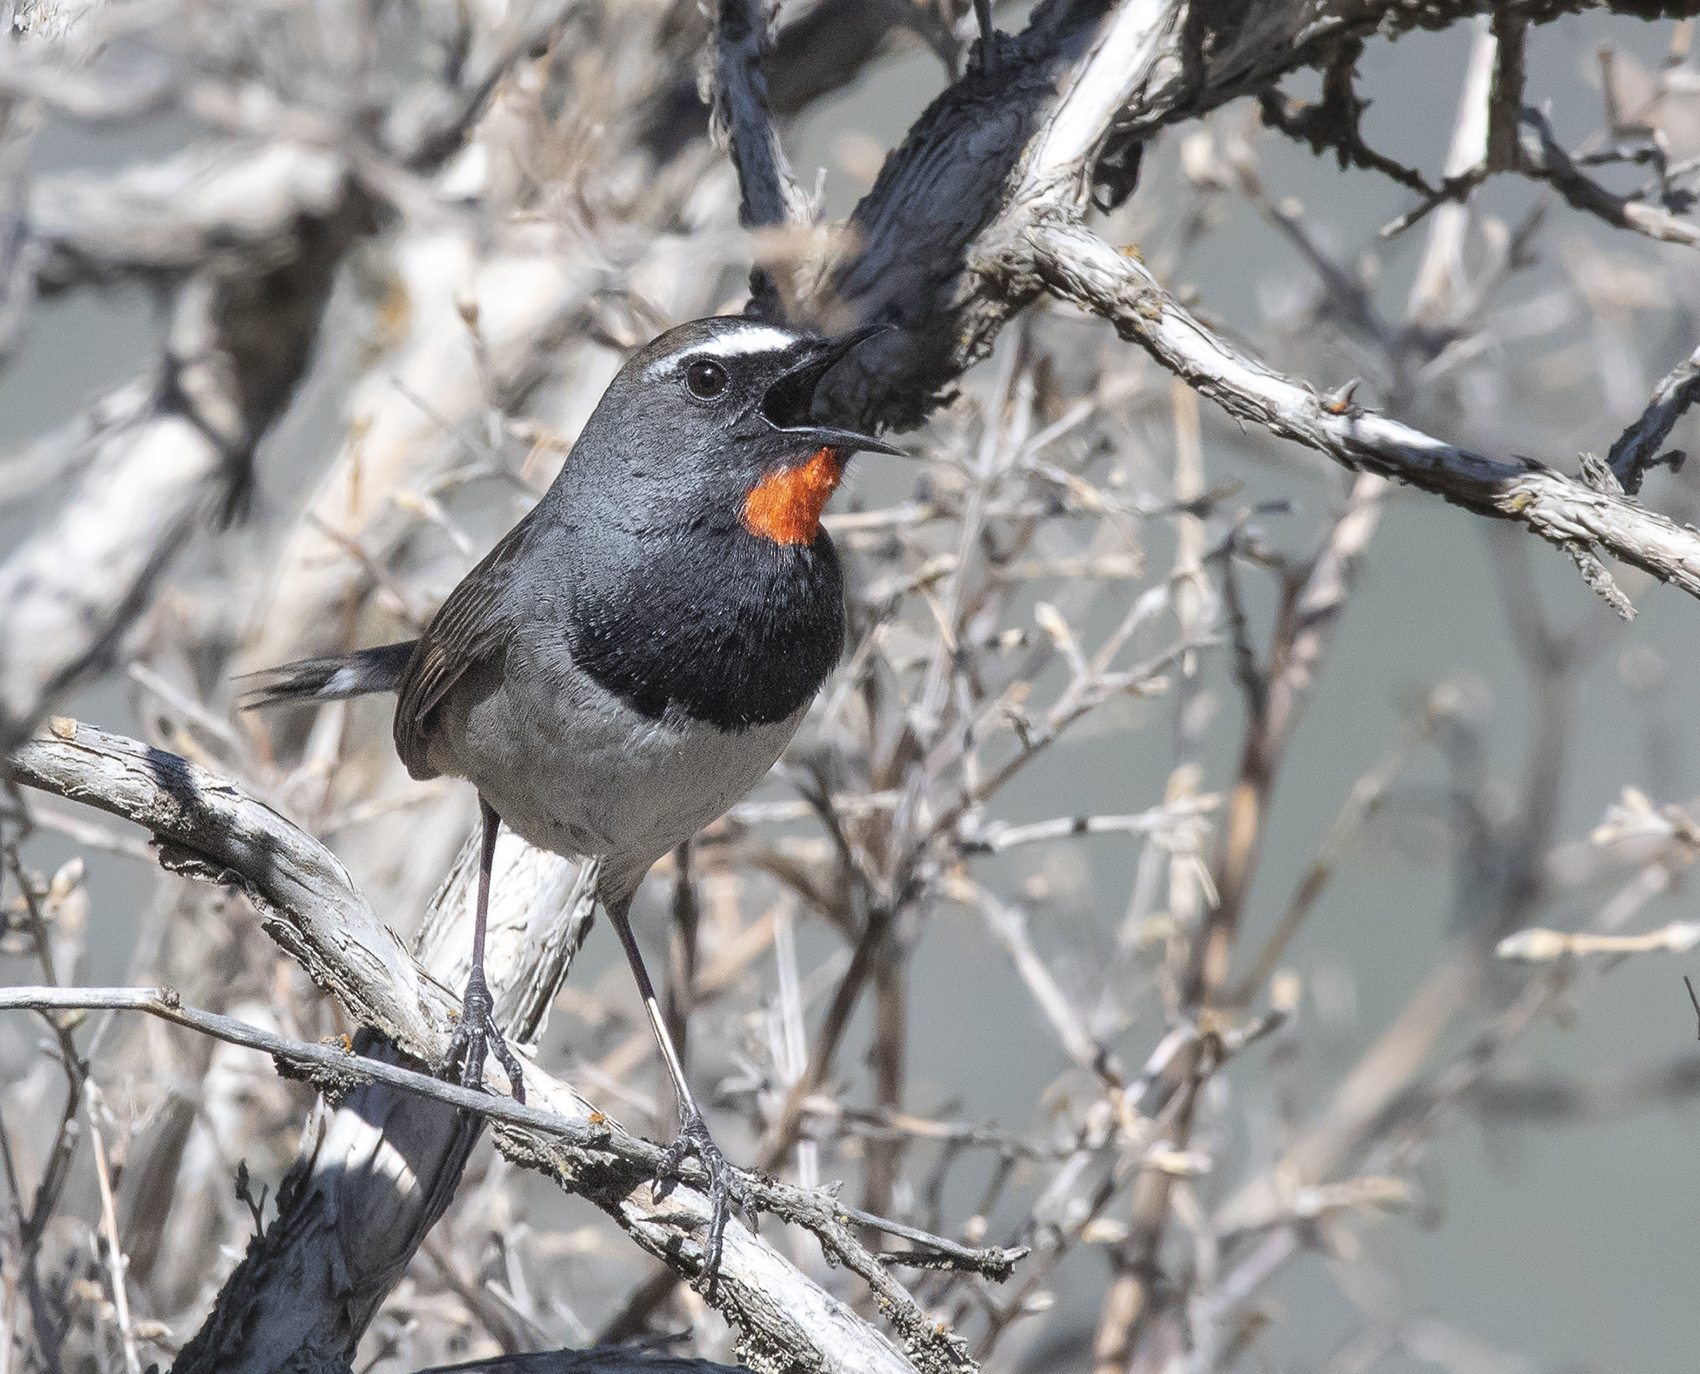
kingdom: Animalia
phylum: Chordata
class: Aves
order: Passeriformes
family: Muscicapidae
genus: Luscinia
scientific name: Luscinia pectoralis
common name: White-tailed rubythroat
